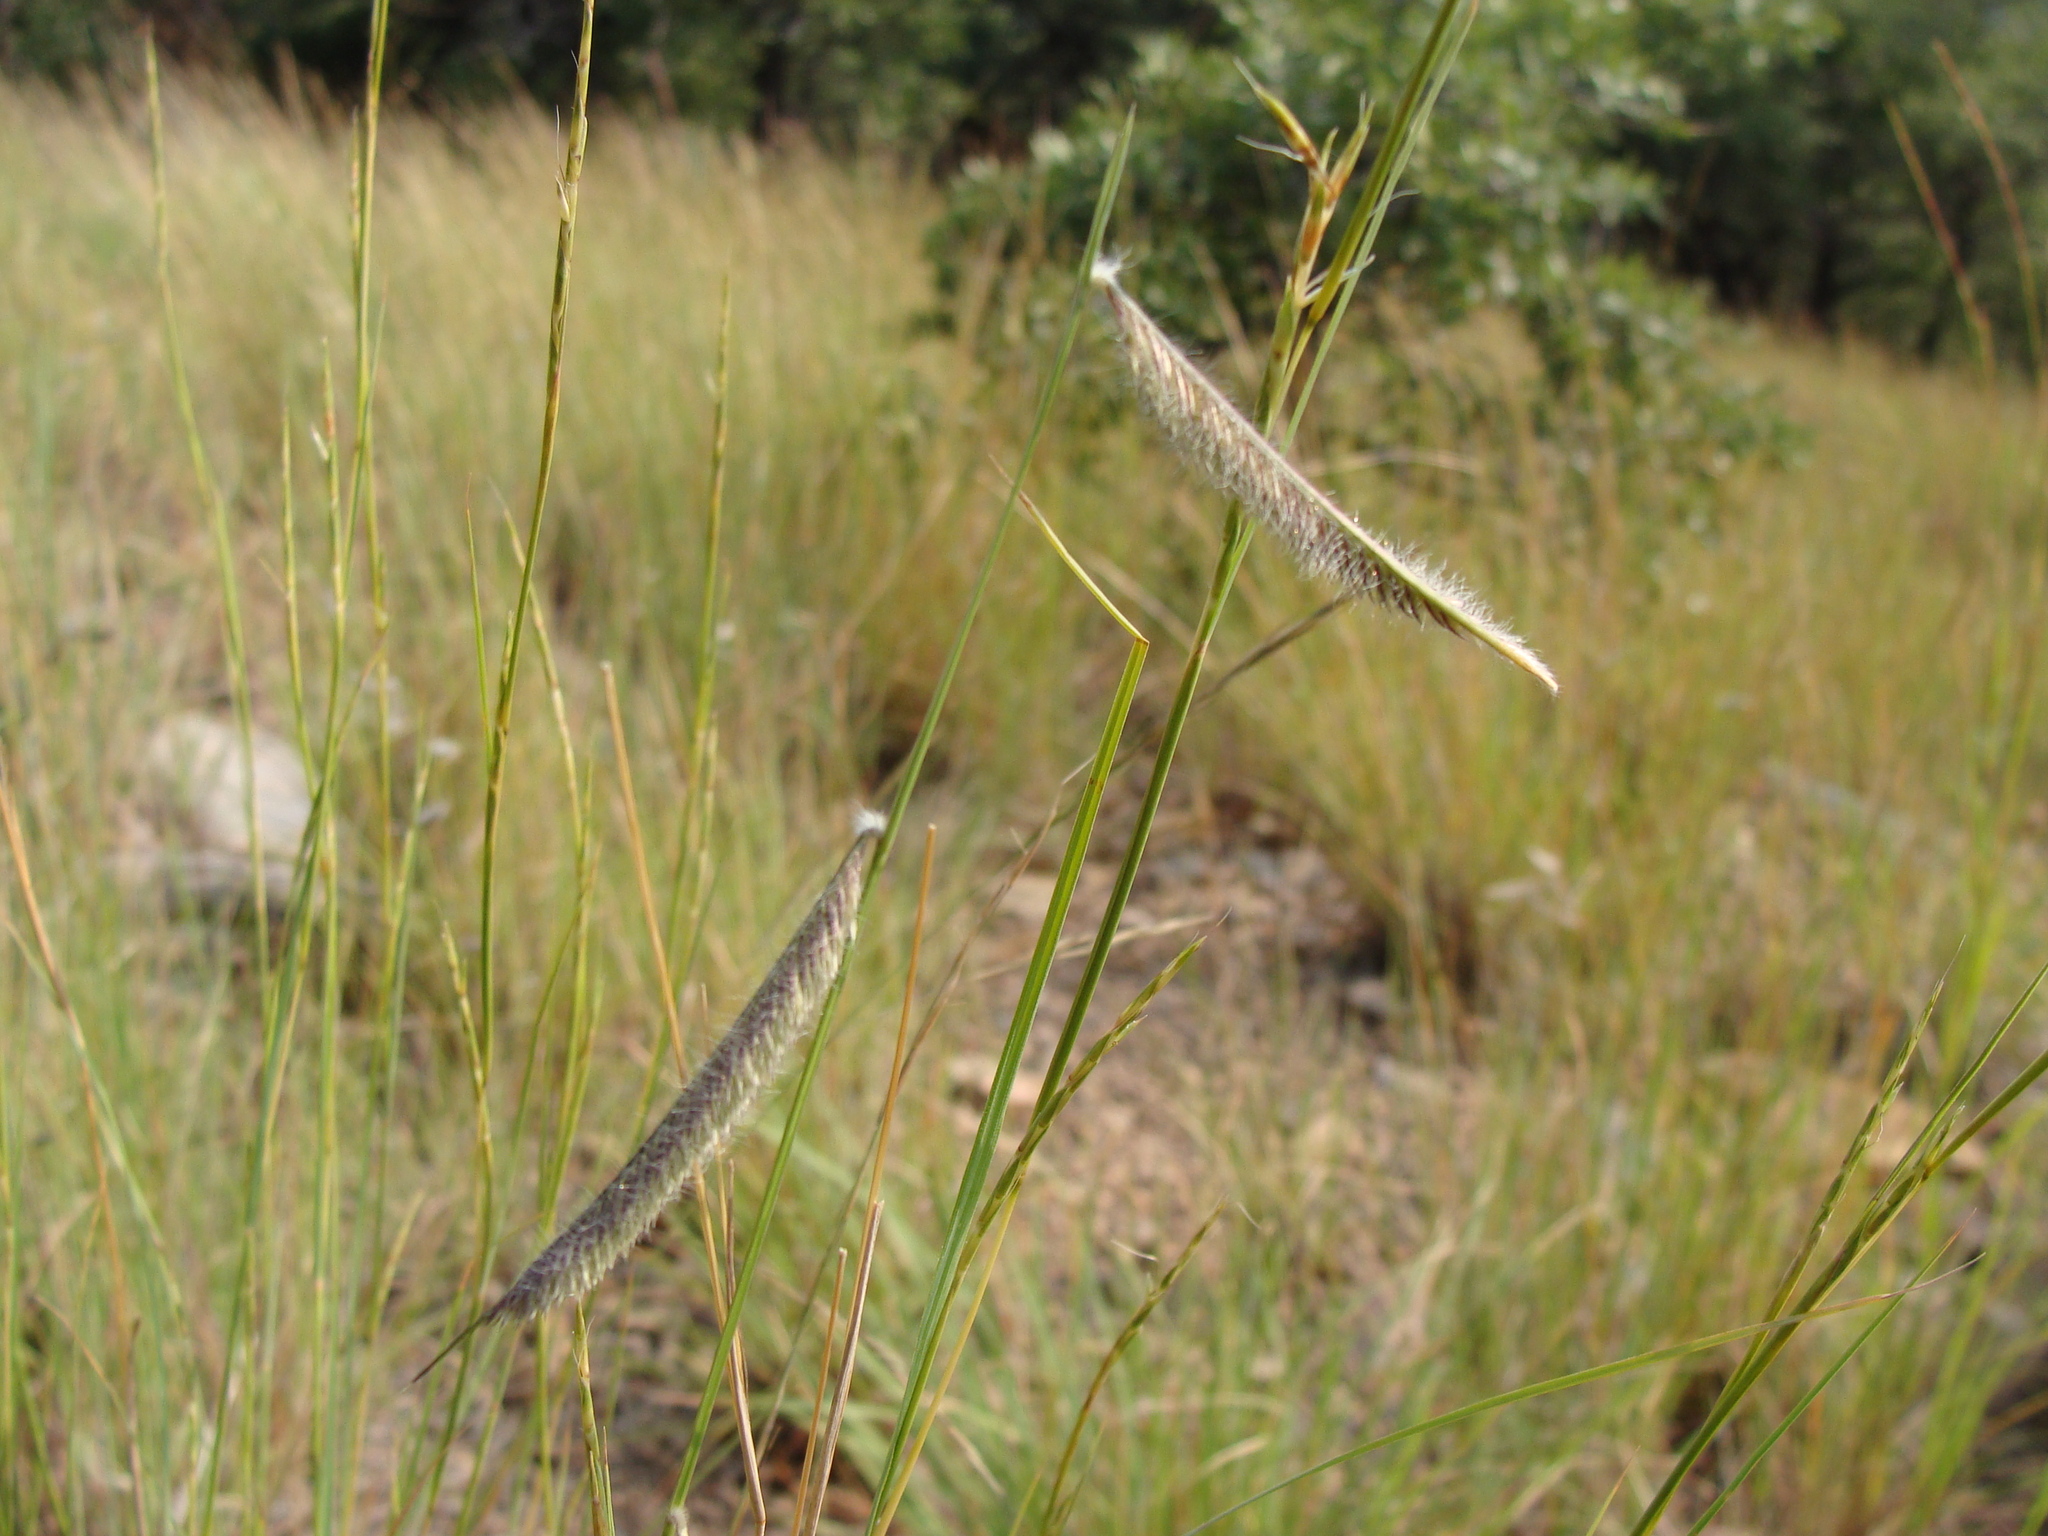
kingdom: Plantae
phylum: Tracheophyta
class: Liliopsida
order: Poales
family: Poaceae
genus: Bouteloua
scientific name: Bouteloua hirsuta
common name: Hairy grama
